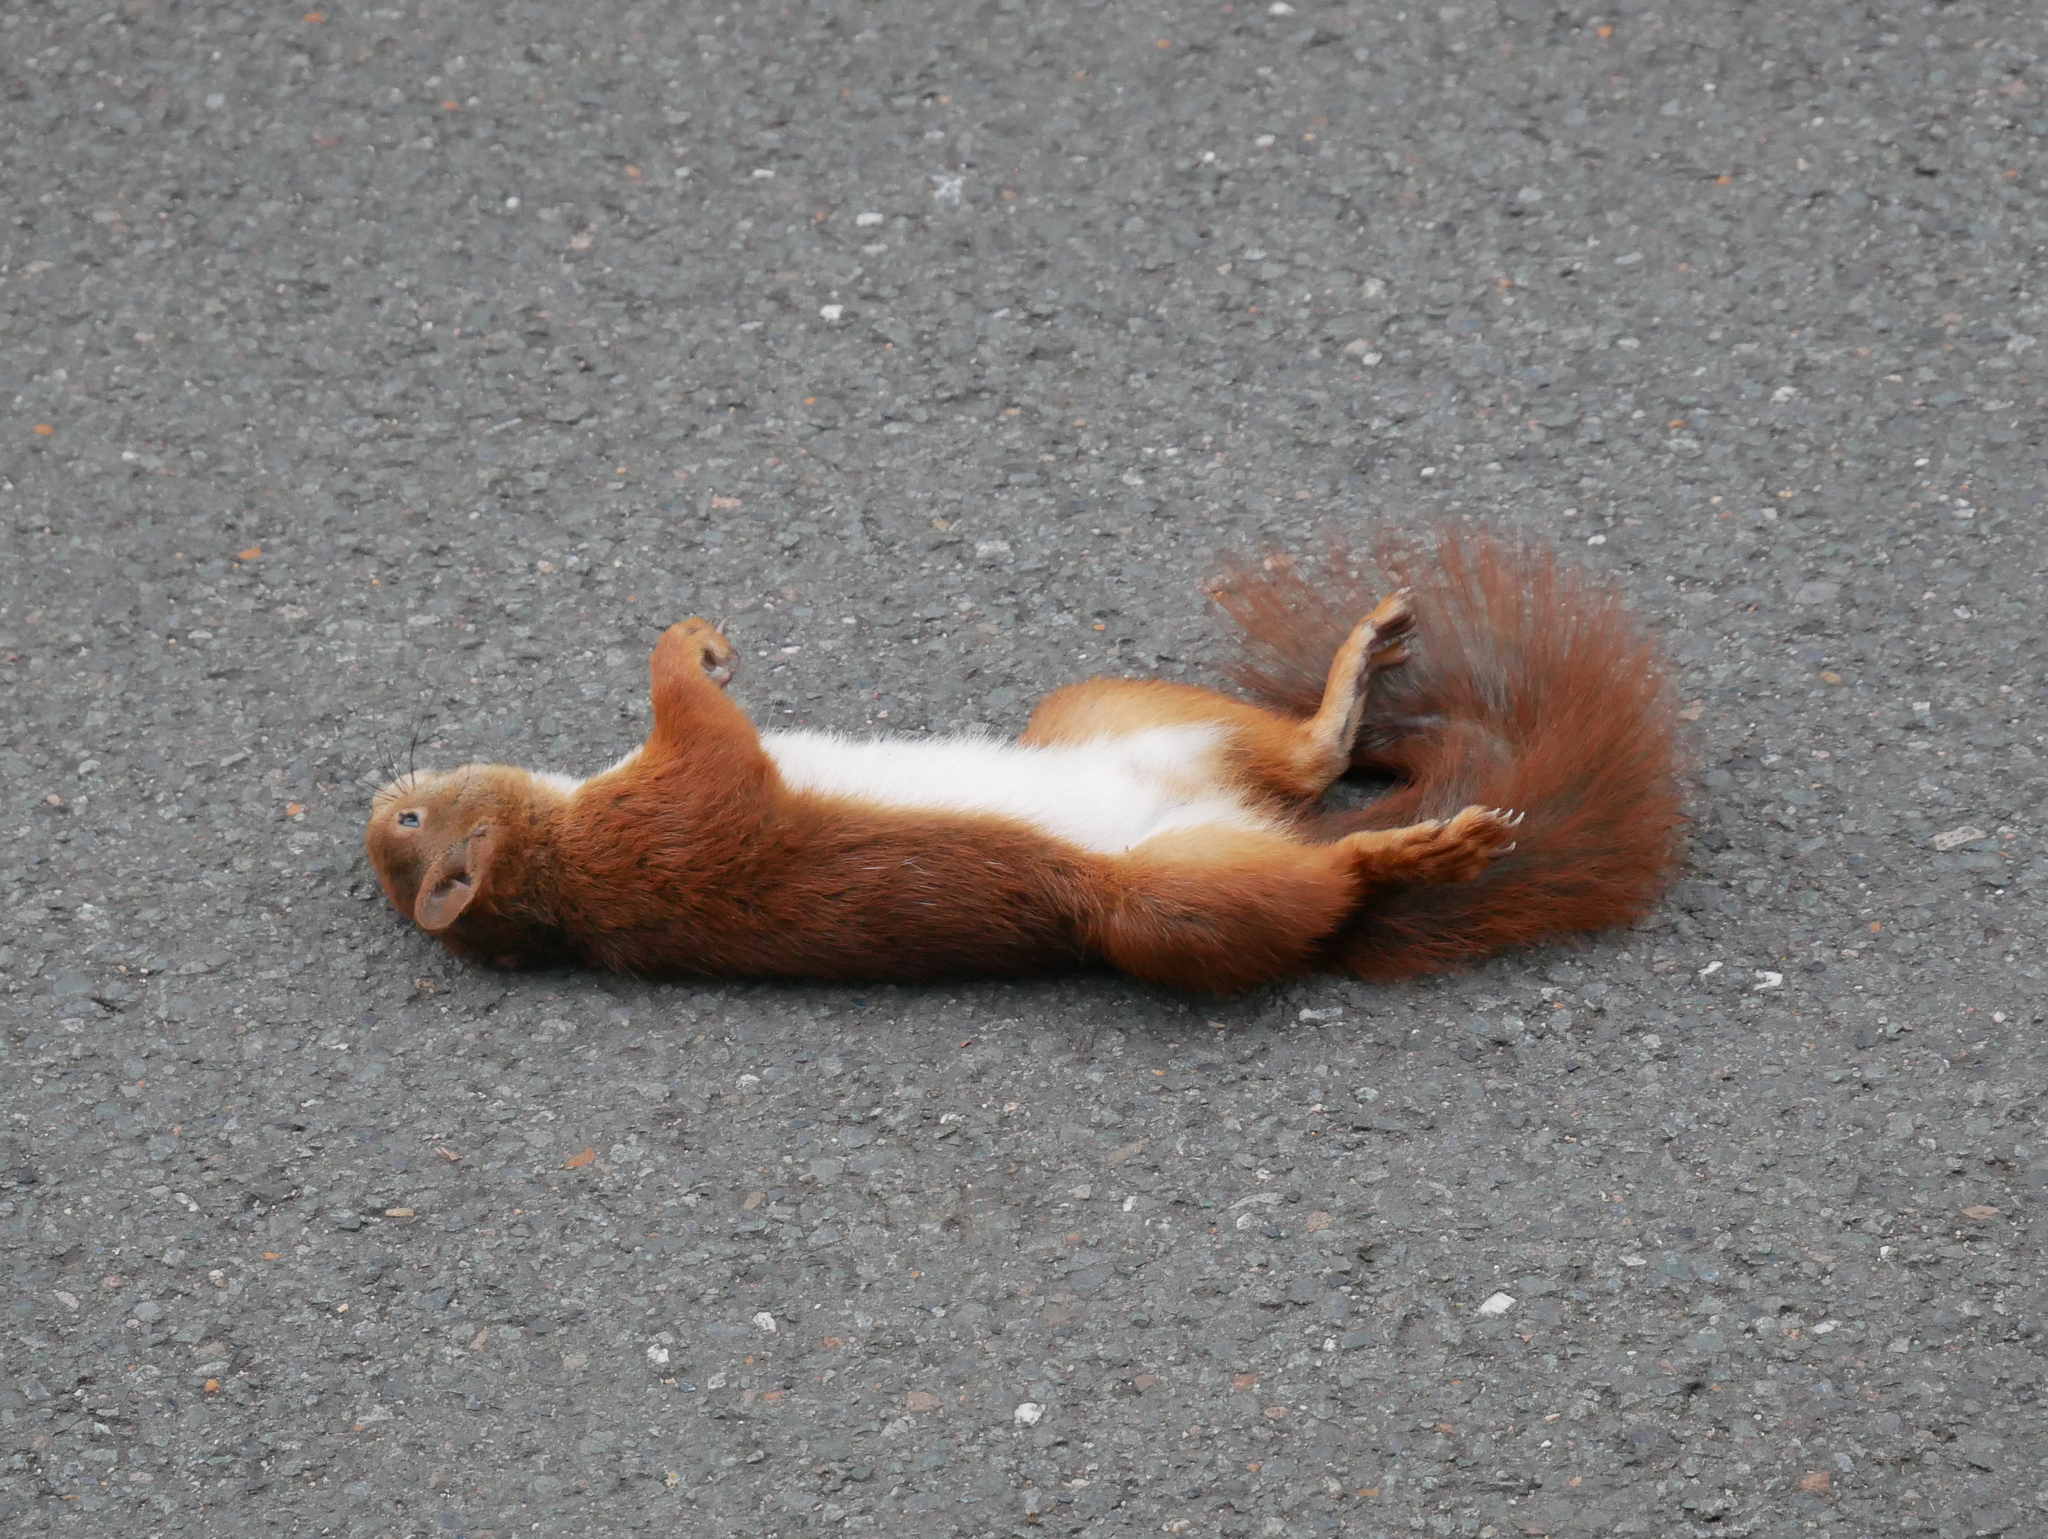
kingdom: Animalia
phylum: Chordata
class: Mammalia
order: Rodentia
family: Sciuridae
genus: Sciurus
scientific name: Sciurus vulgaris
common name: Eurasian red squirrel
